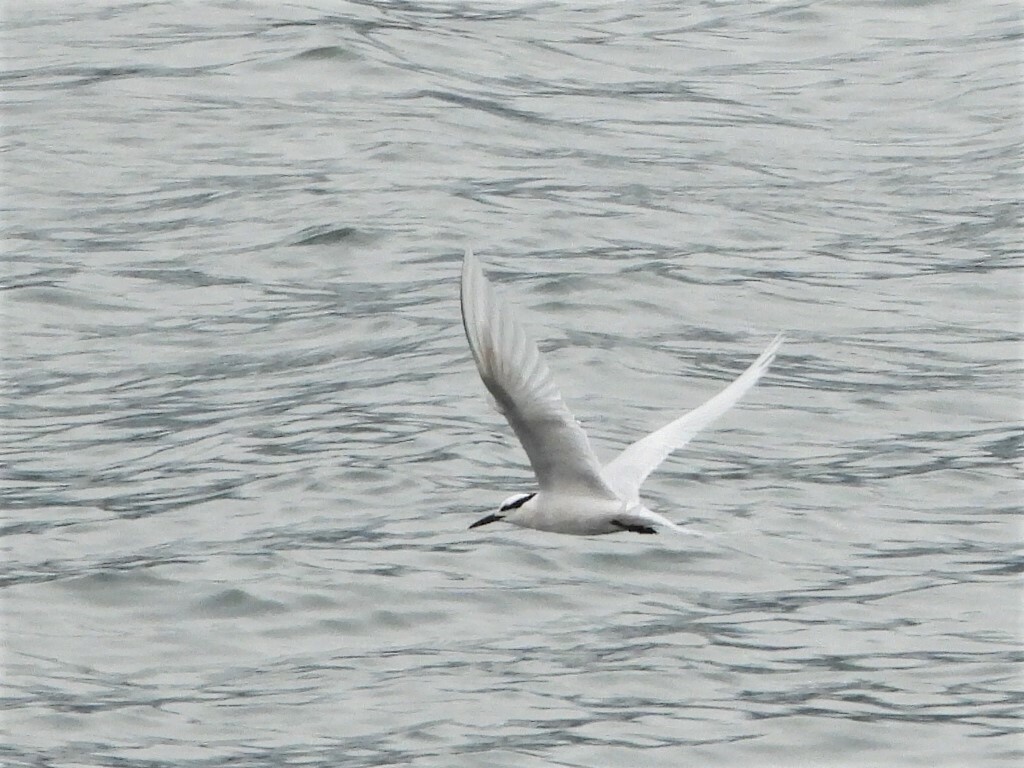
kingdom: Animalia
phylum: Chordata
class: Aves
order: Charadriiformes
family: Laridae
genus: Sterna
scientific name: Sterna sumatrana
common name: Black-naped tern
